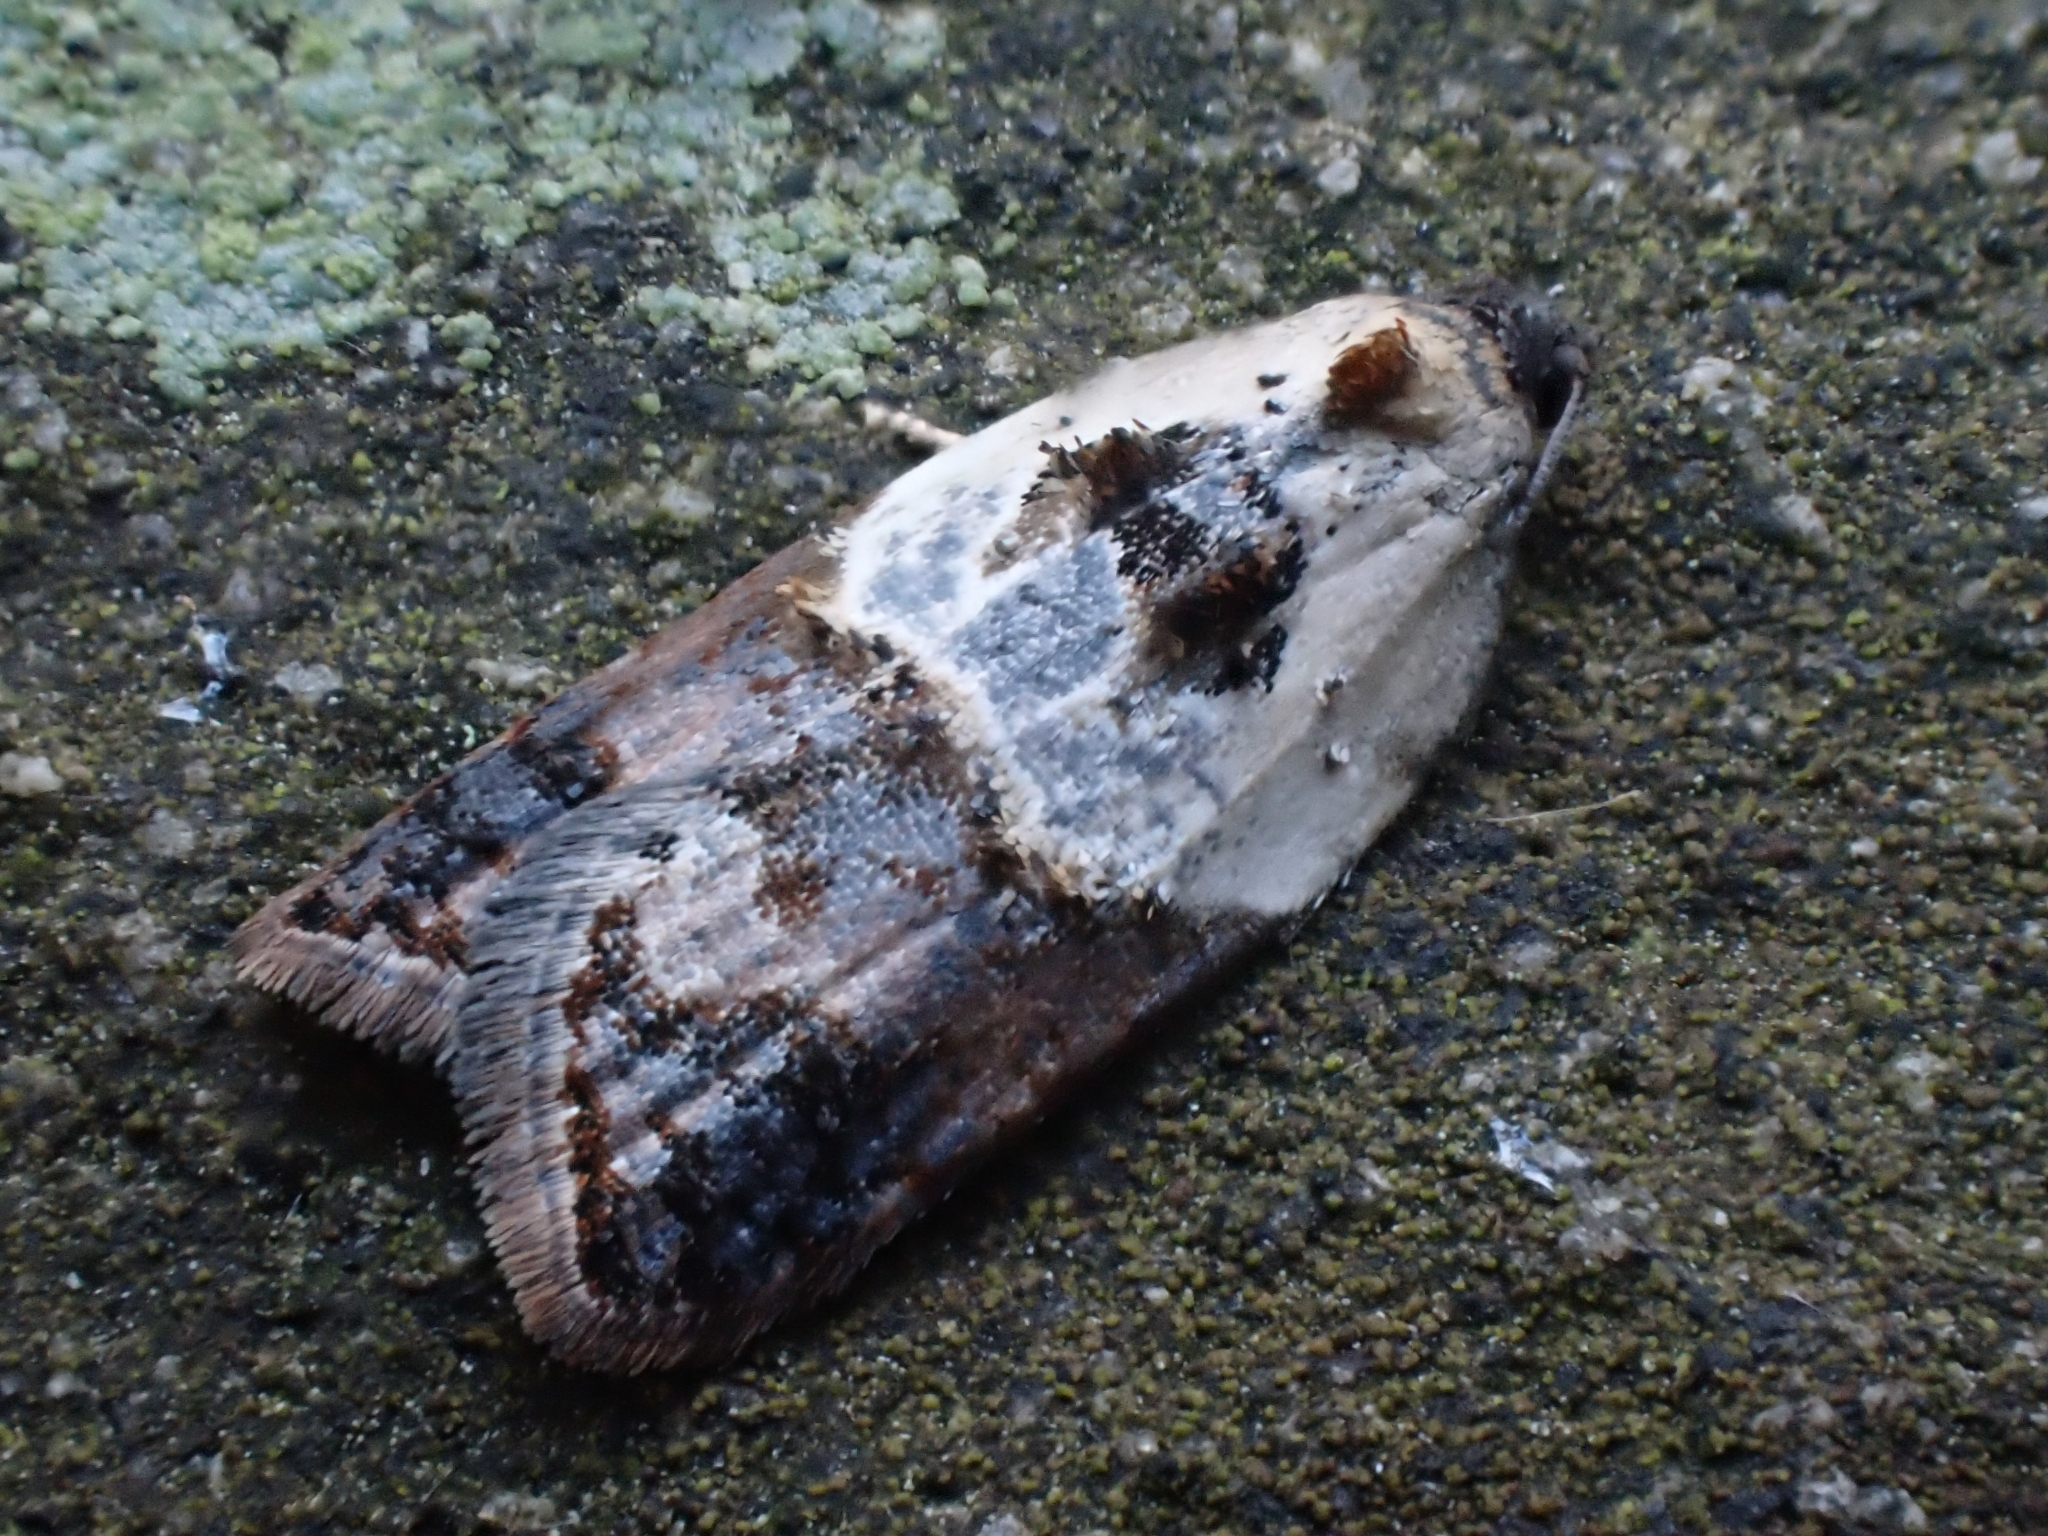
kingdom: Animalia
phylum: Arthropoda
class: Insecta
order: Lepidoptera
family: Tortricidae
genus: Acleris
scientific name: Acleris variegana
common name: Garden rose tortrix
